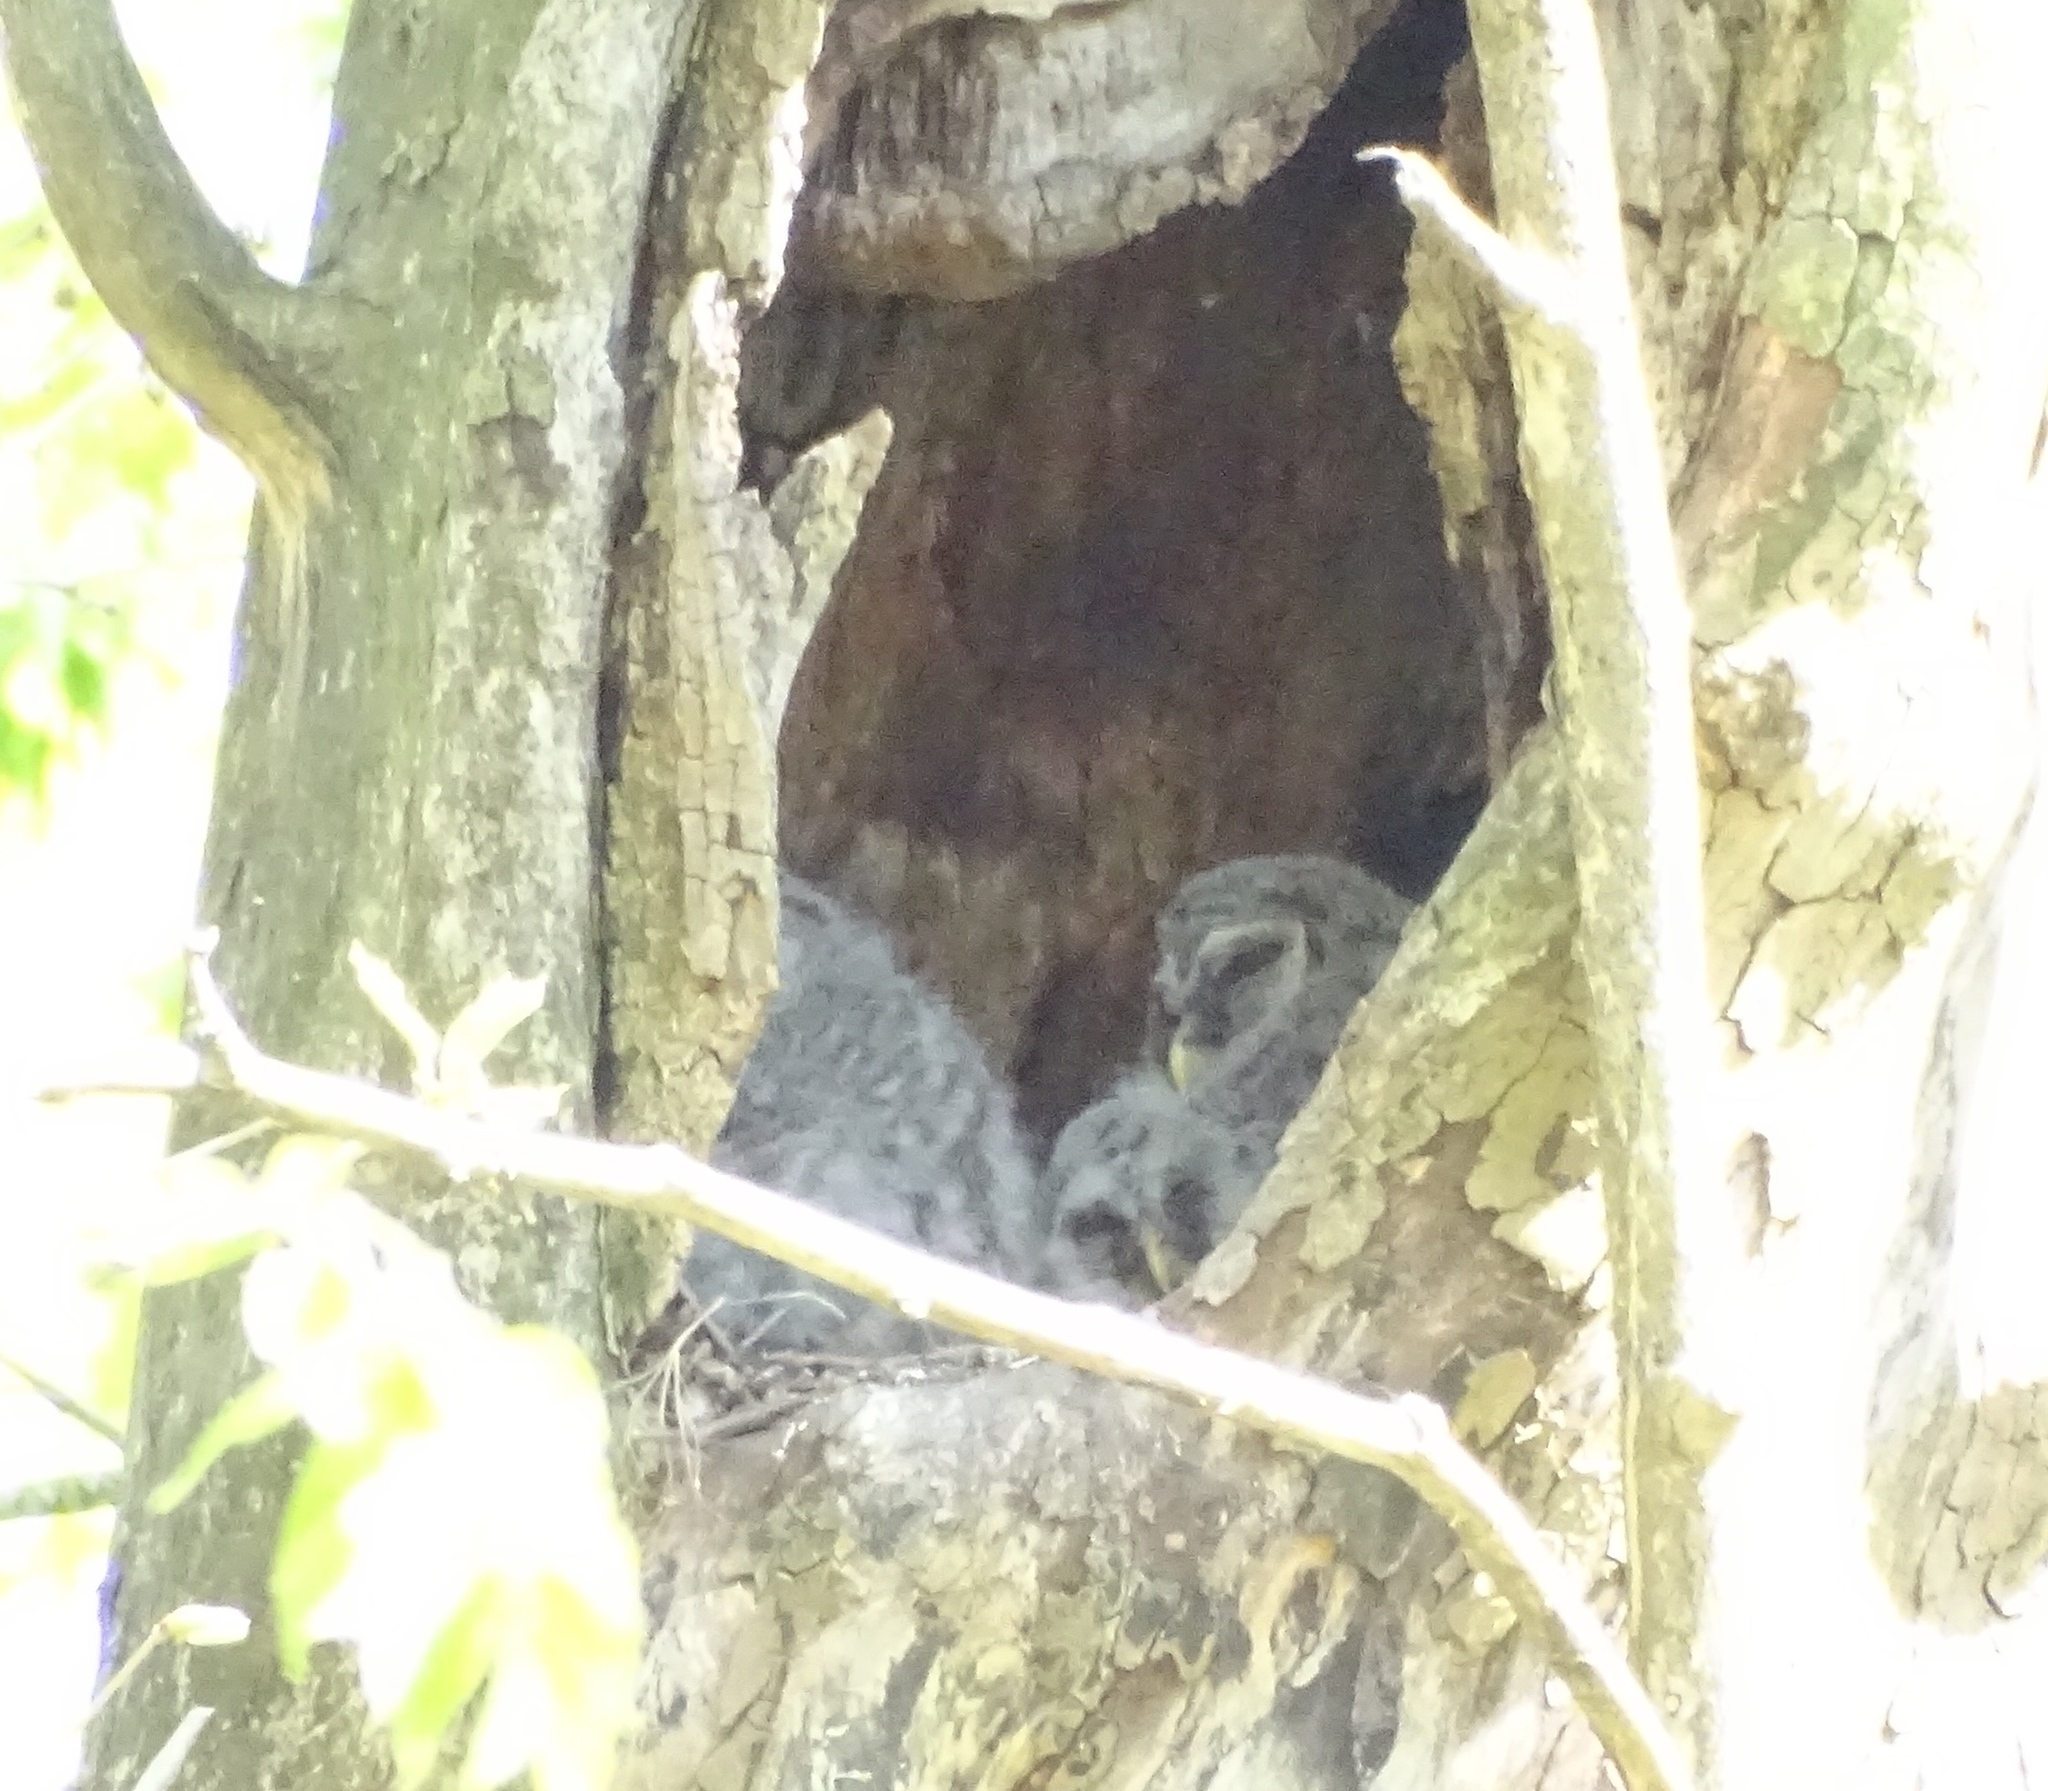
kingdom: Animalia
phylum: Chordata
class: Aves
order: Strigiformes
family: Strigidae
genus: Strix
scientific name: Strix varia
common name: Barred owl
